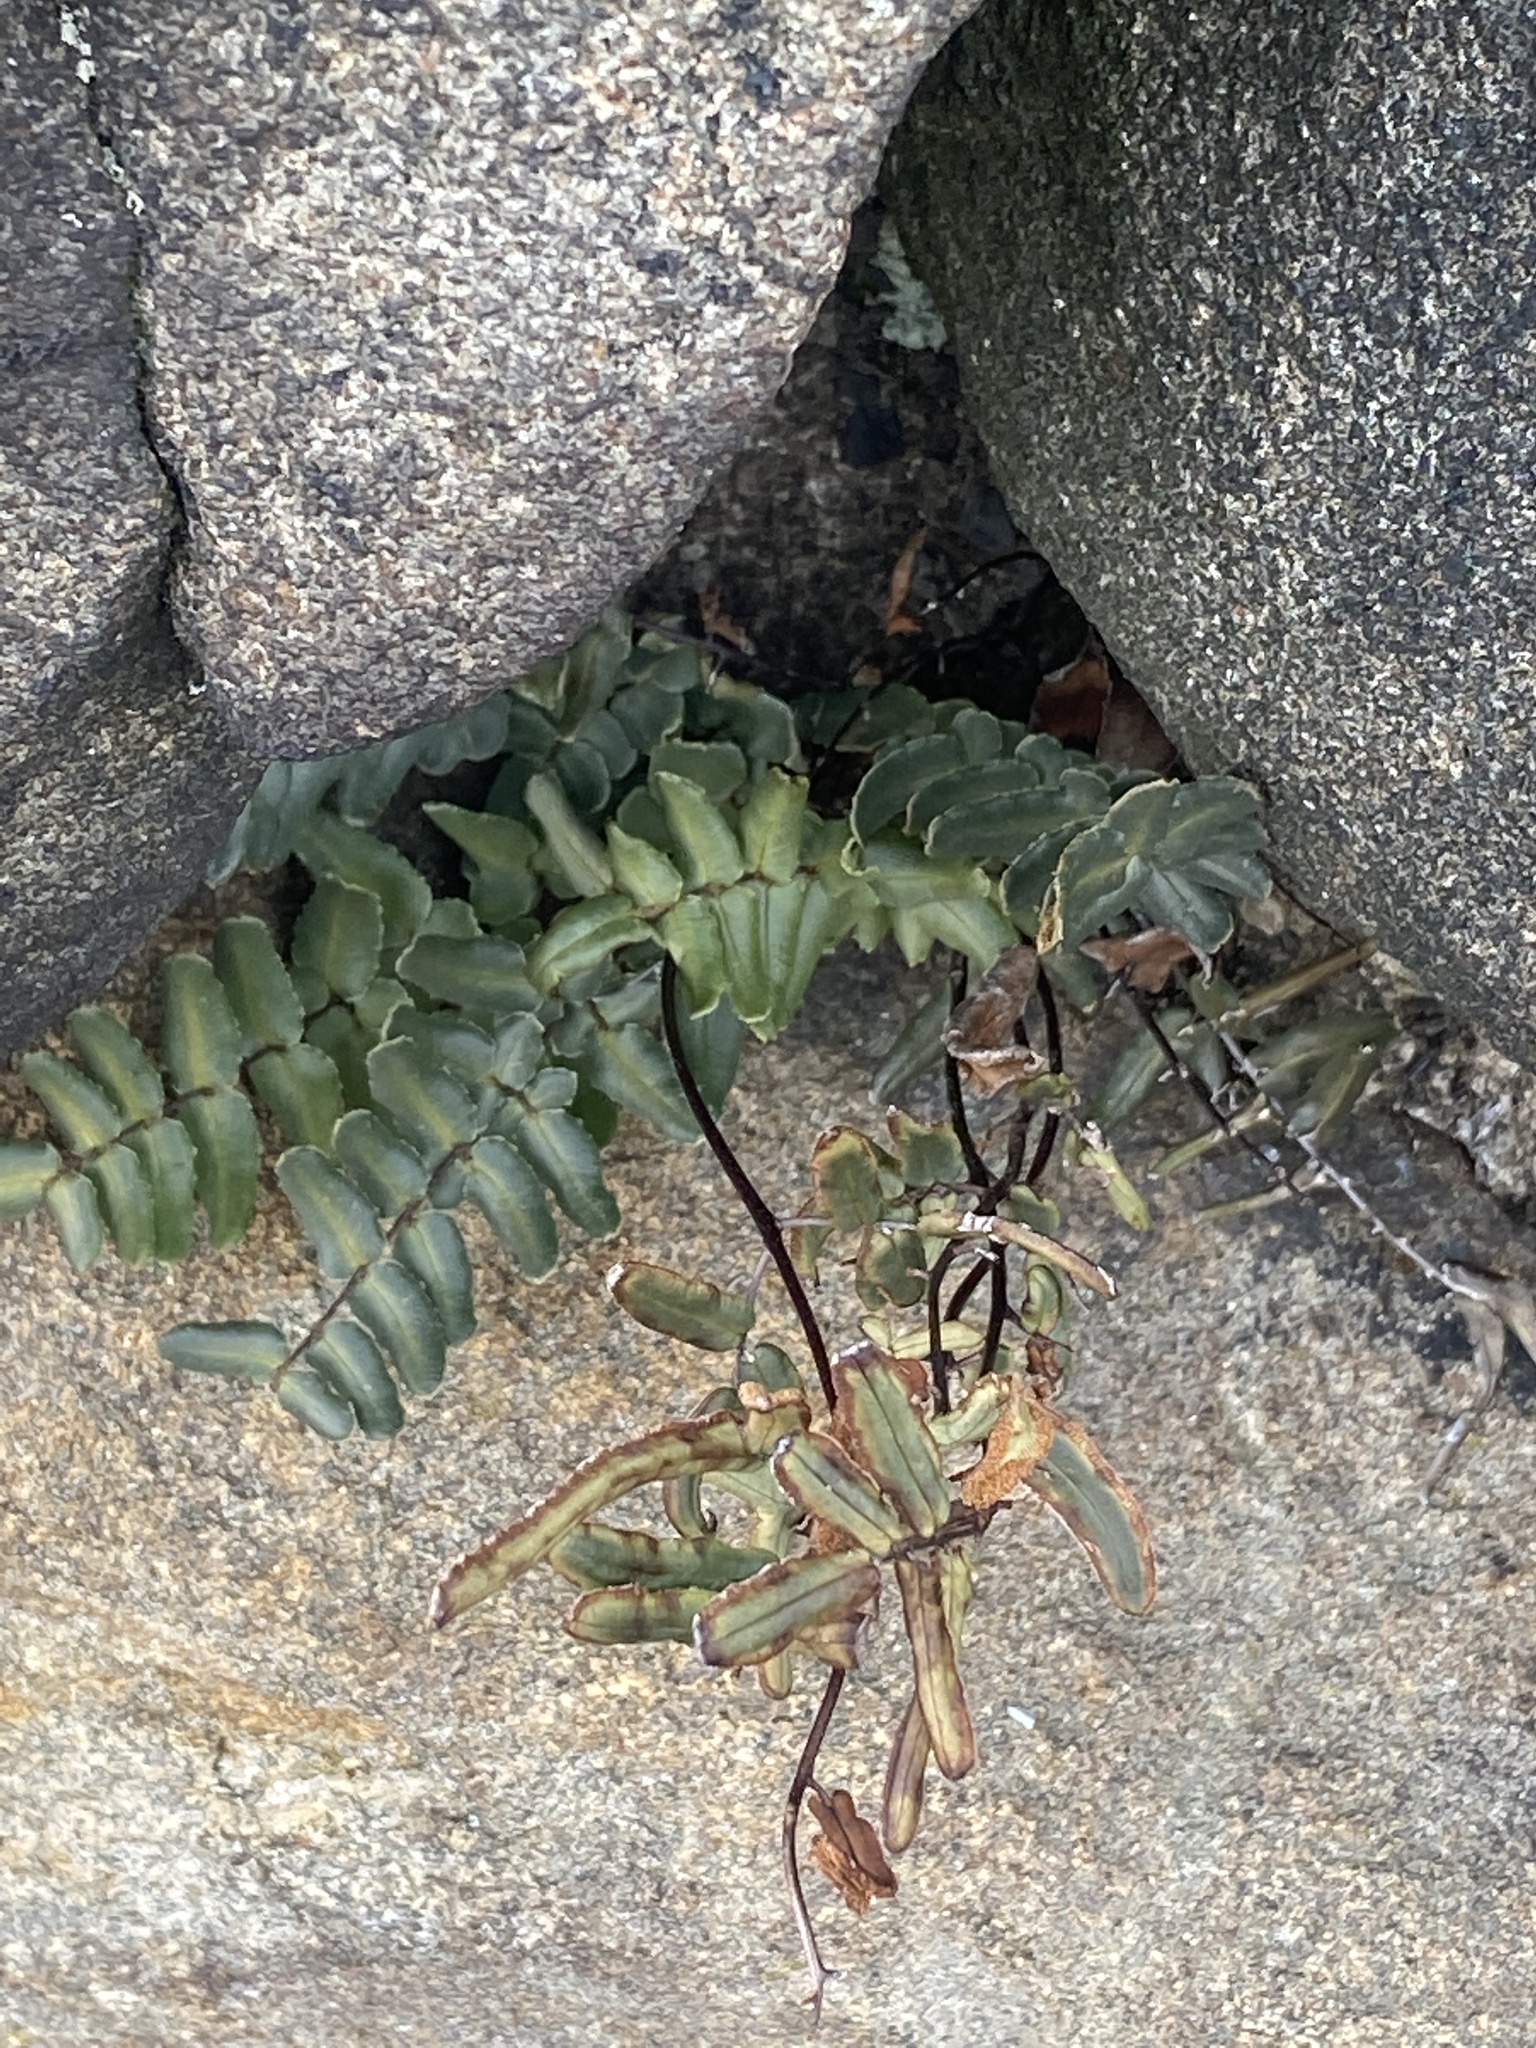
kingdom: Plantae
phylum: Tracheophyta
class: Polypodiopsida
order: Polypodiales
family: Pteridaceae
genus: Pellaea
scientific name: Pellaea atropurpurea
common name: Hairy cliffbrake
